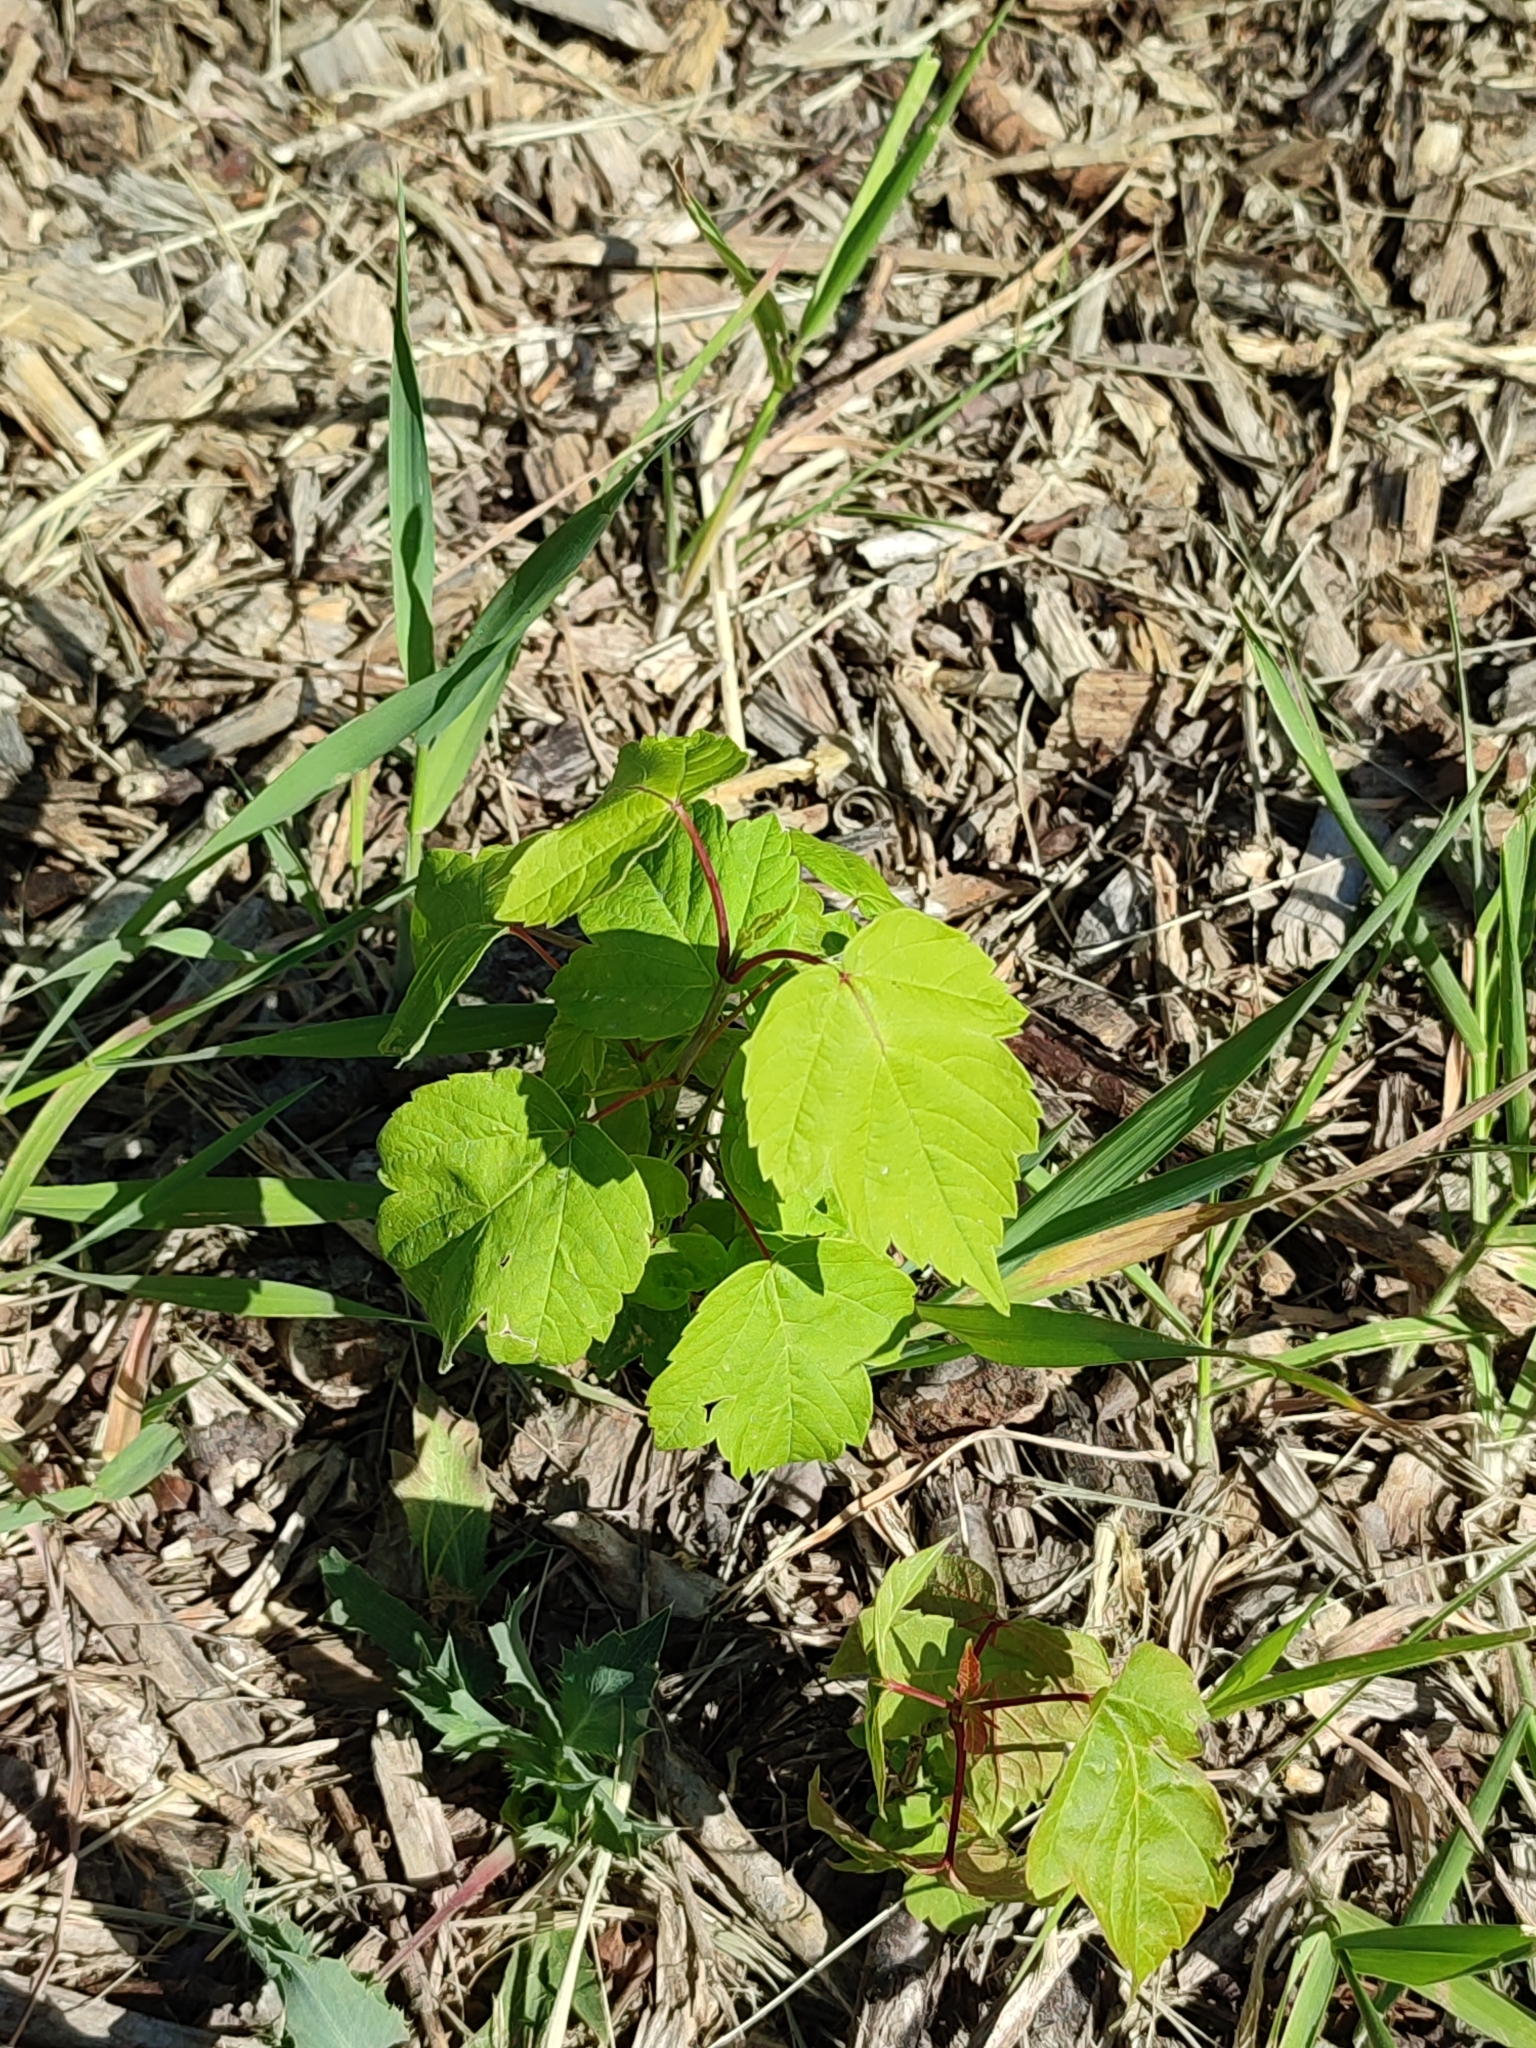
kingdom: Plantae
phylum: Tracheophyta
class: Magnoliopsida
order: Sapindales
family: Sapindaceae
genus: Acer
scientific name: Acer negundo
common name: Ashleaf maple
